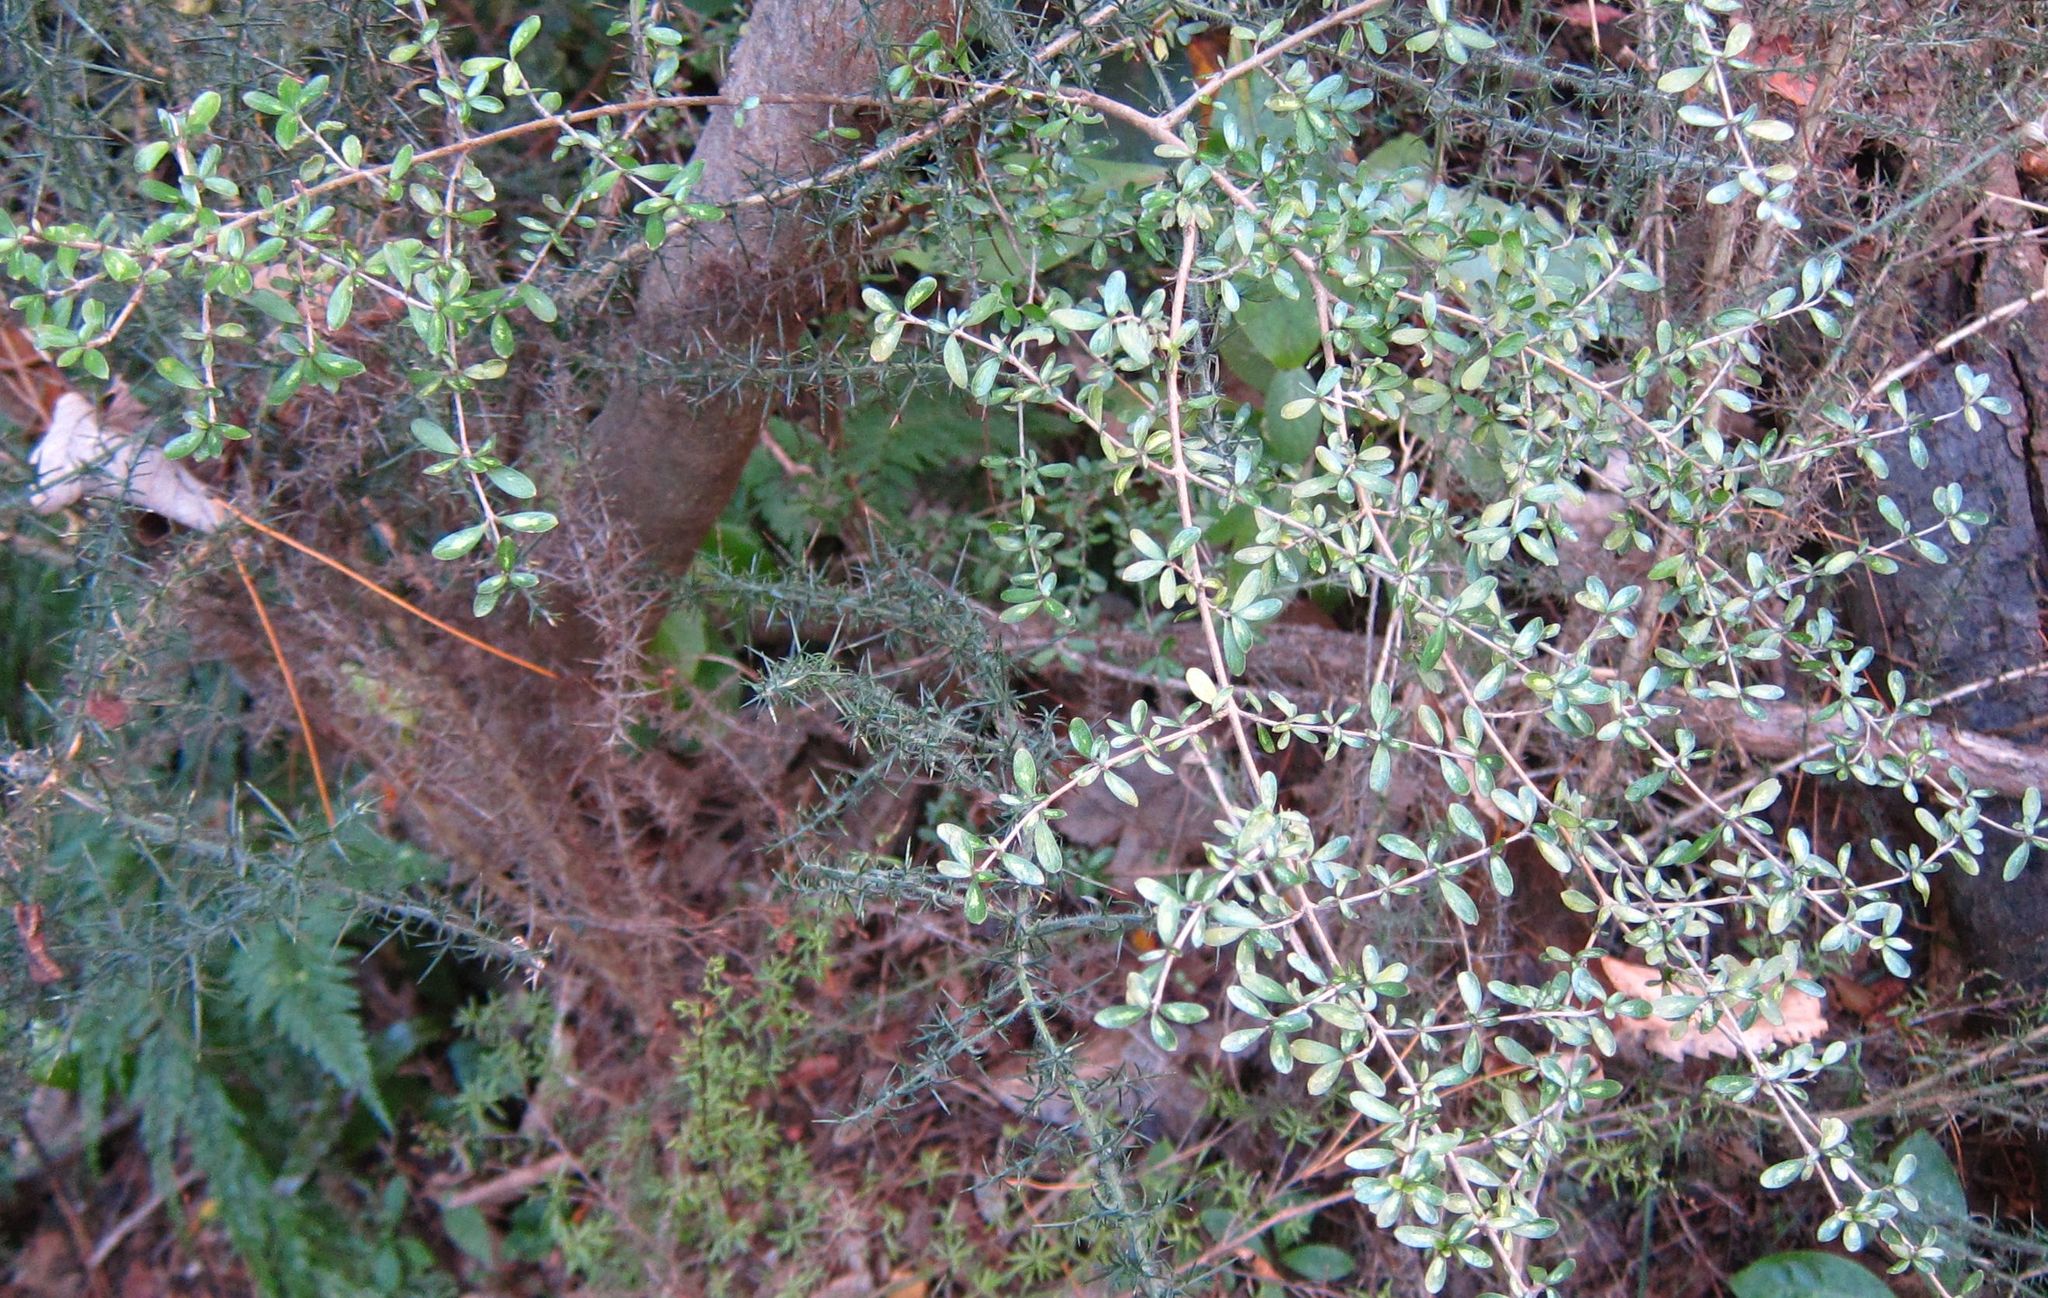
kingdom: Plantae
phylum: Tracheophyta
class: Magnoliopsida
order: Gentianales
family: Rubiaceae
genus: Coprosma
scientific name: Coprosma propinqua
